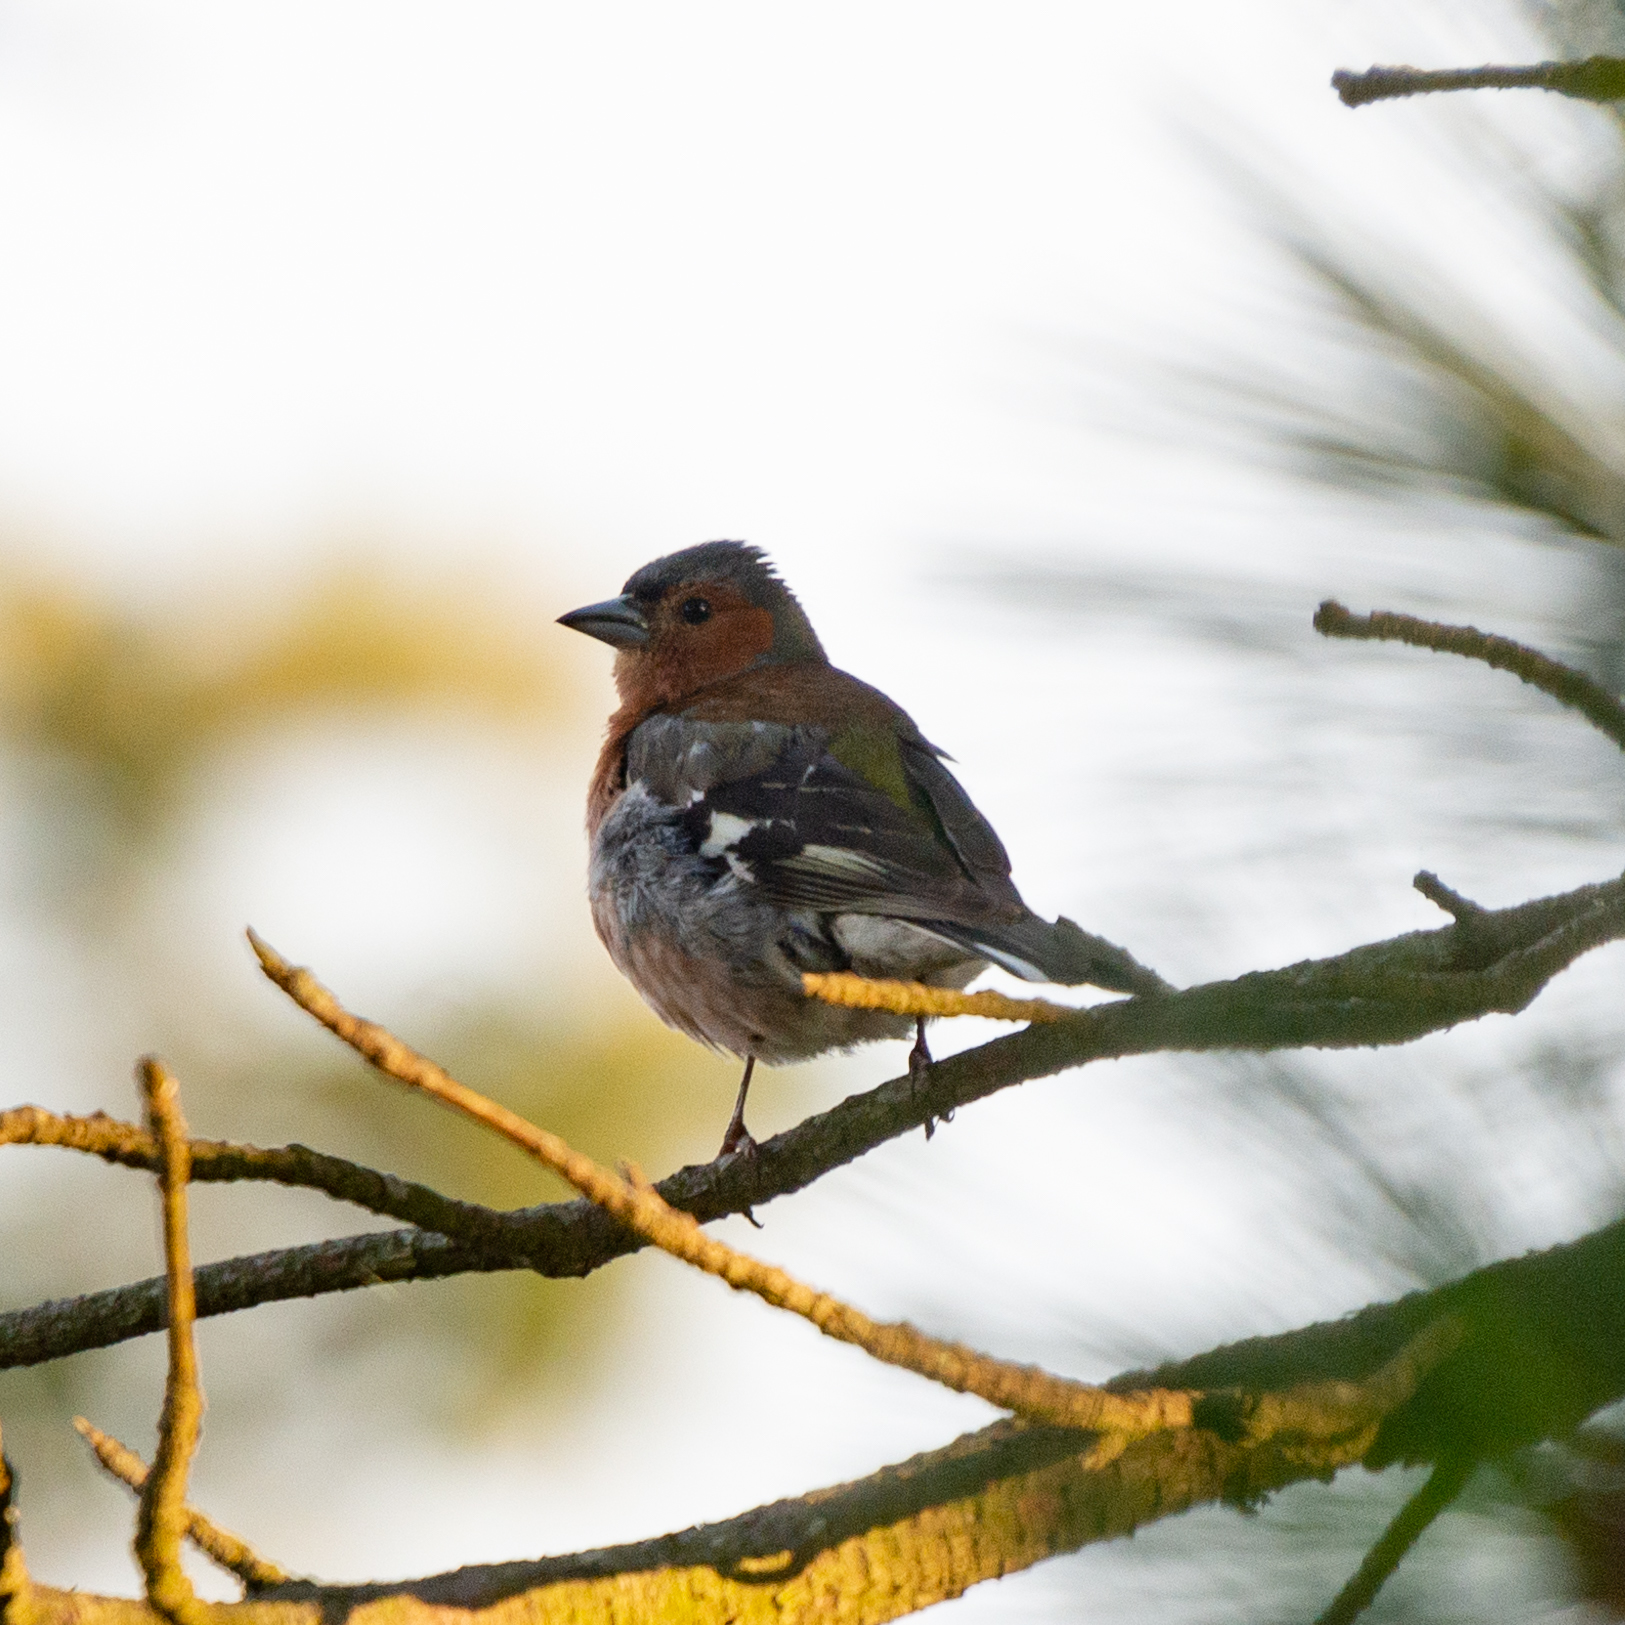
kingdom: Animalia
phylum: Chordata
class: Aves
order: Passeriformes
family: Fringillidae
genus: Fringilla
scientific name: Fringilla coelebs
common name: Common chaffinch
